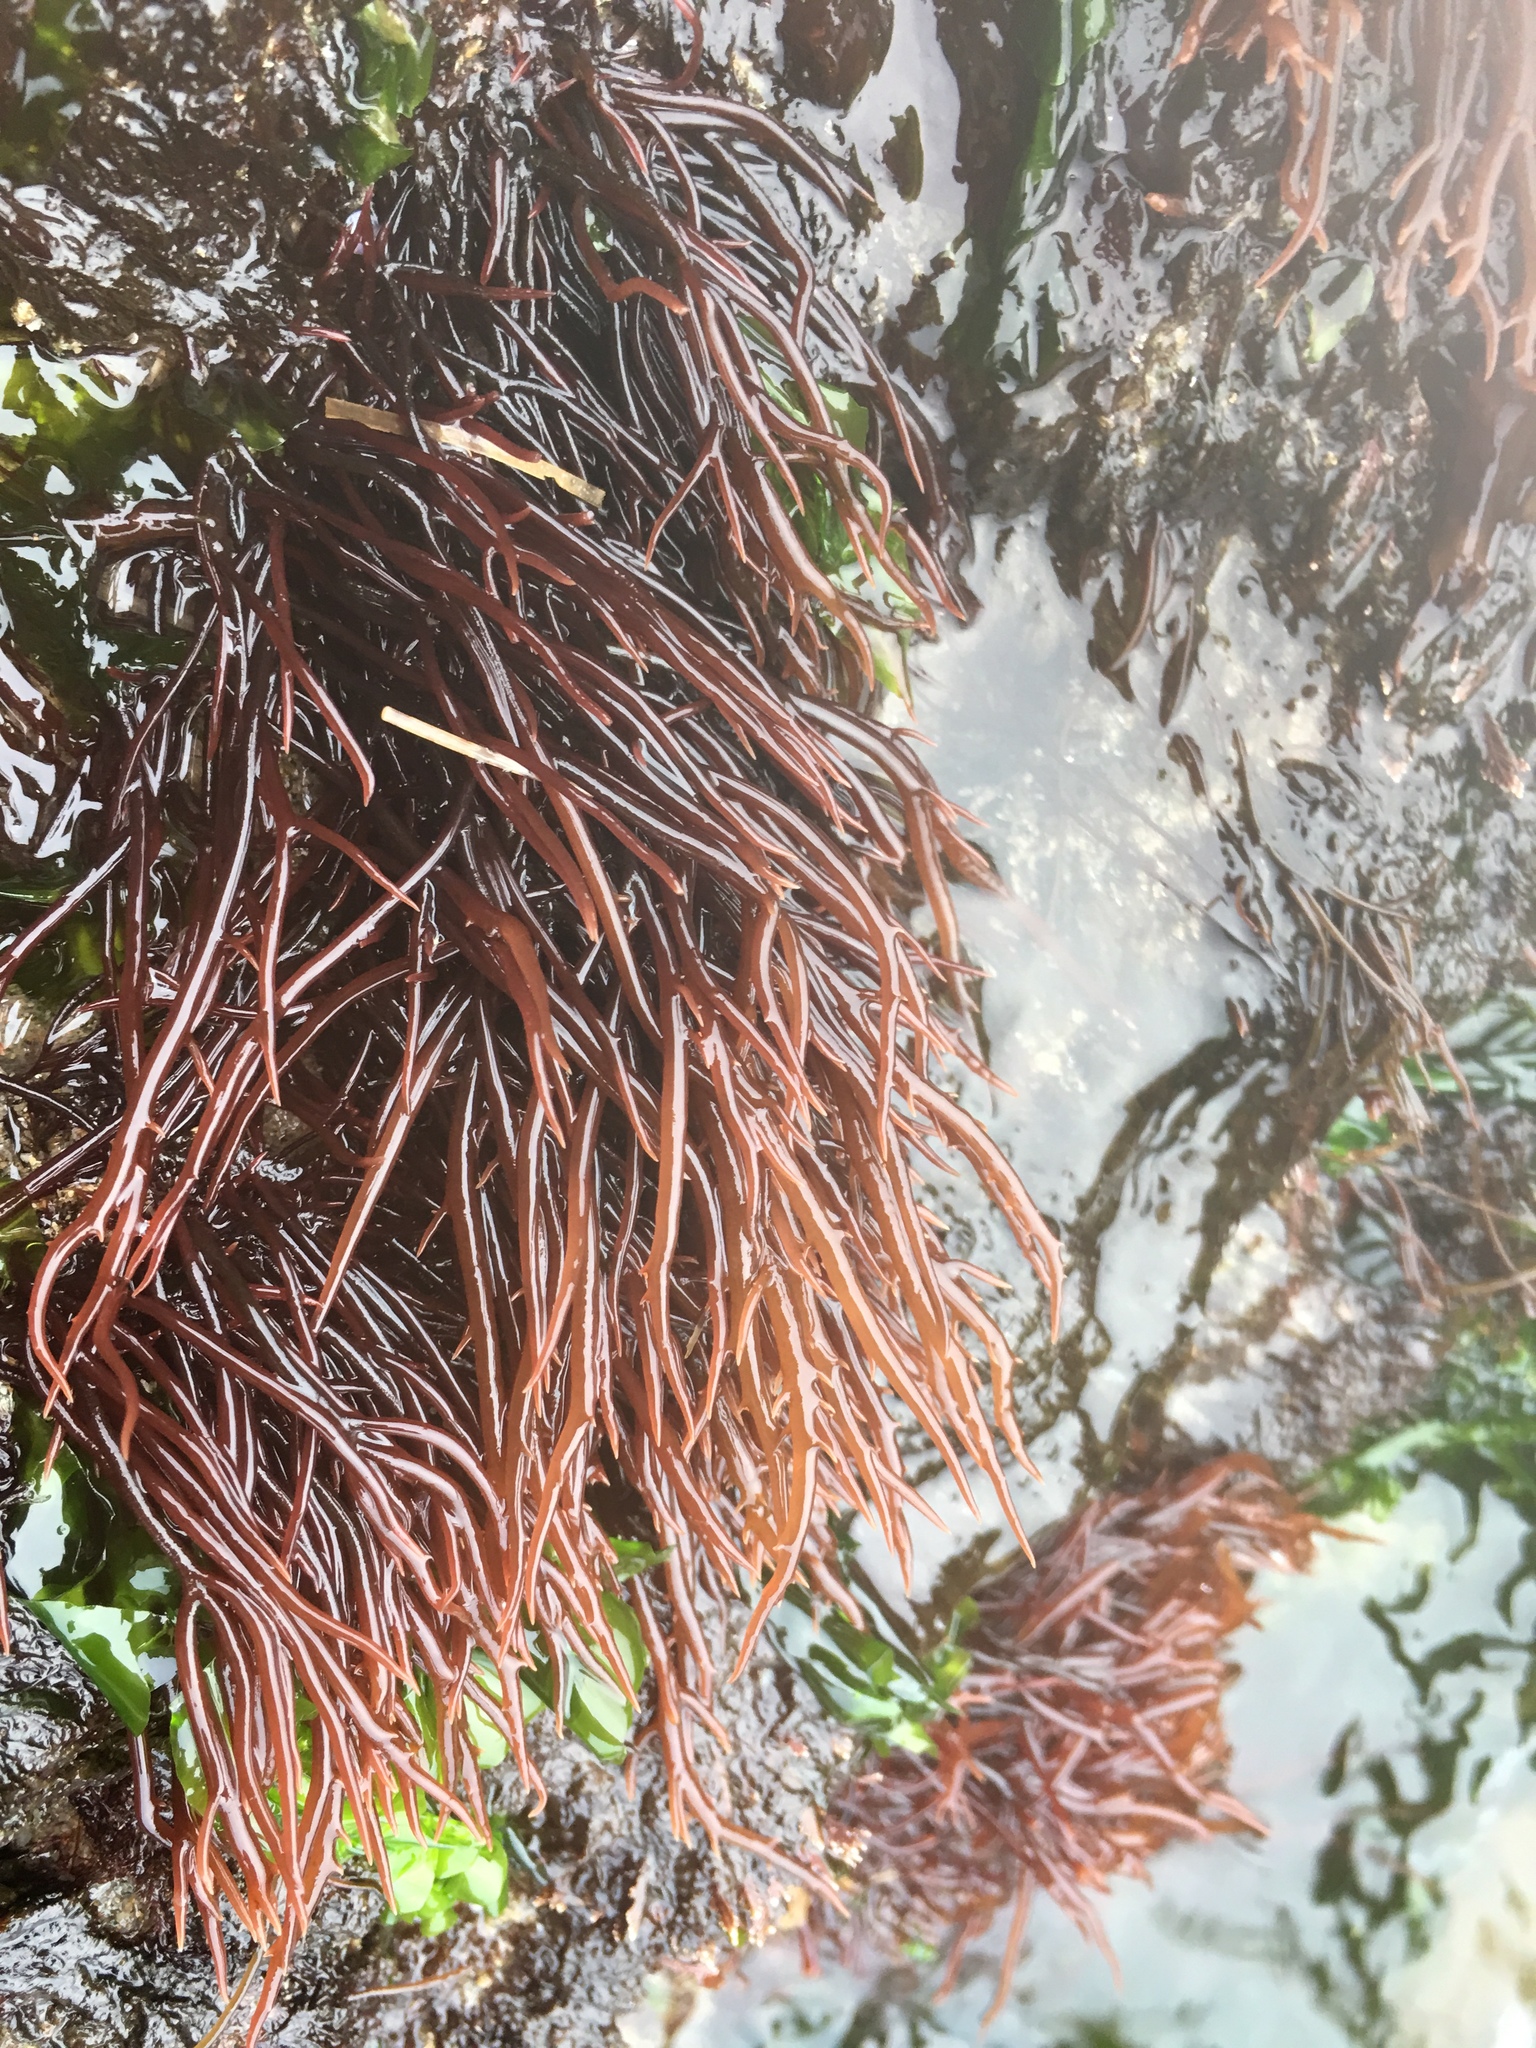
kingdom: Plantae
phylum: Rhodophyta
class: Florideophyceae
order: Gigartinales
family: Solieriaceae
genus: Sarcodiotheca
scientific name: Sarcodiotheca gaudichaudii
